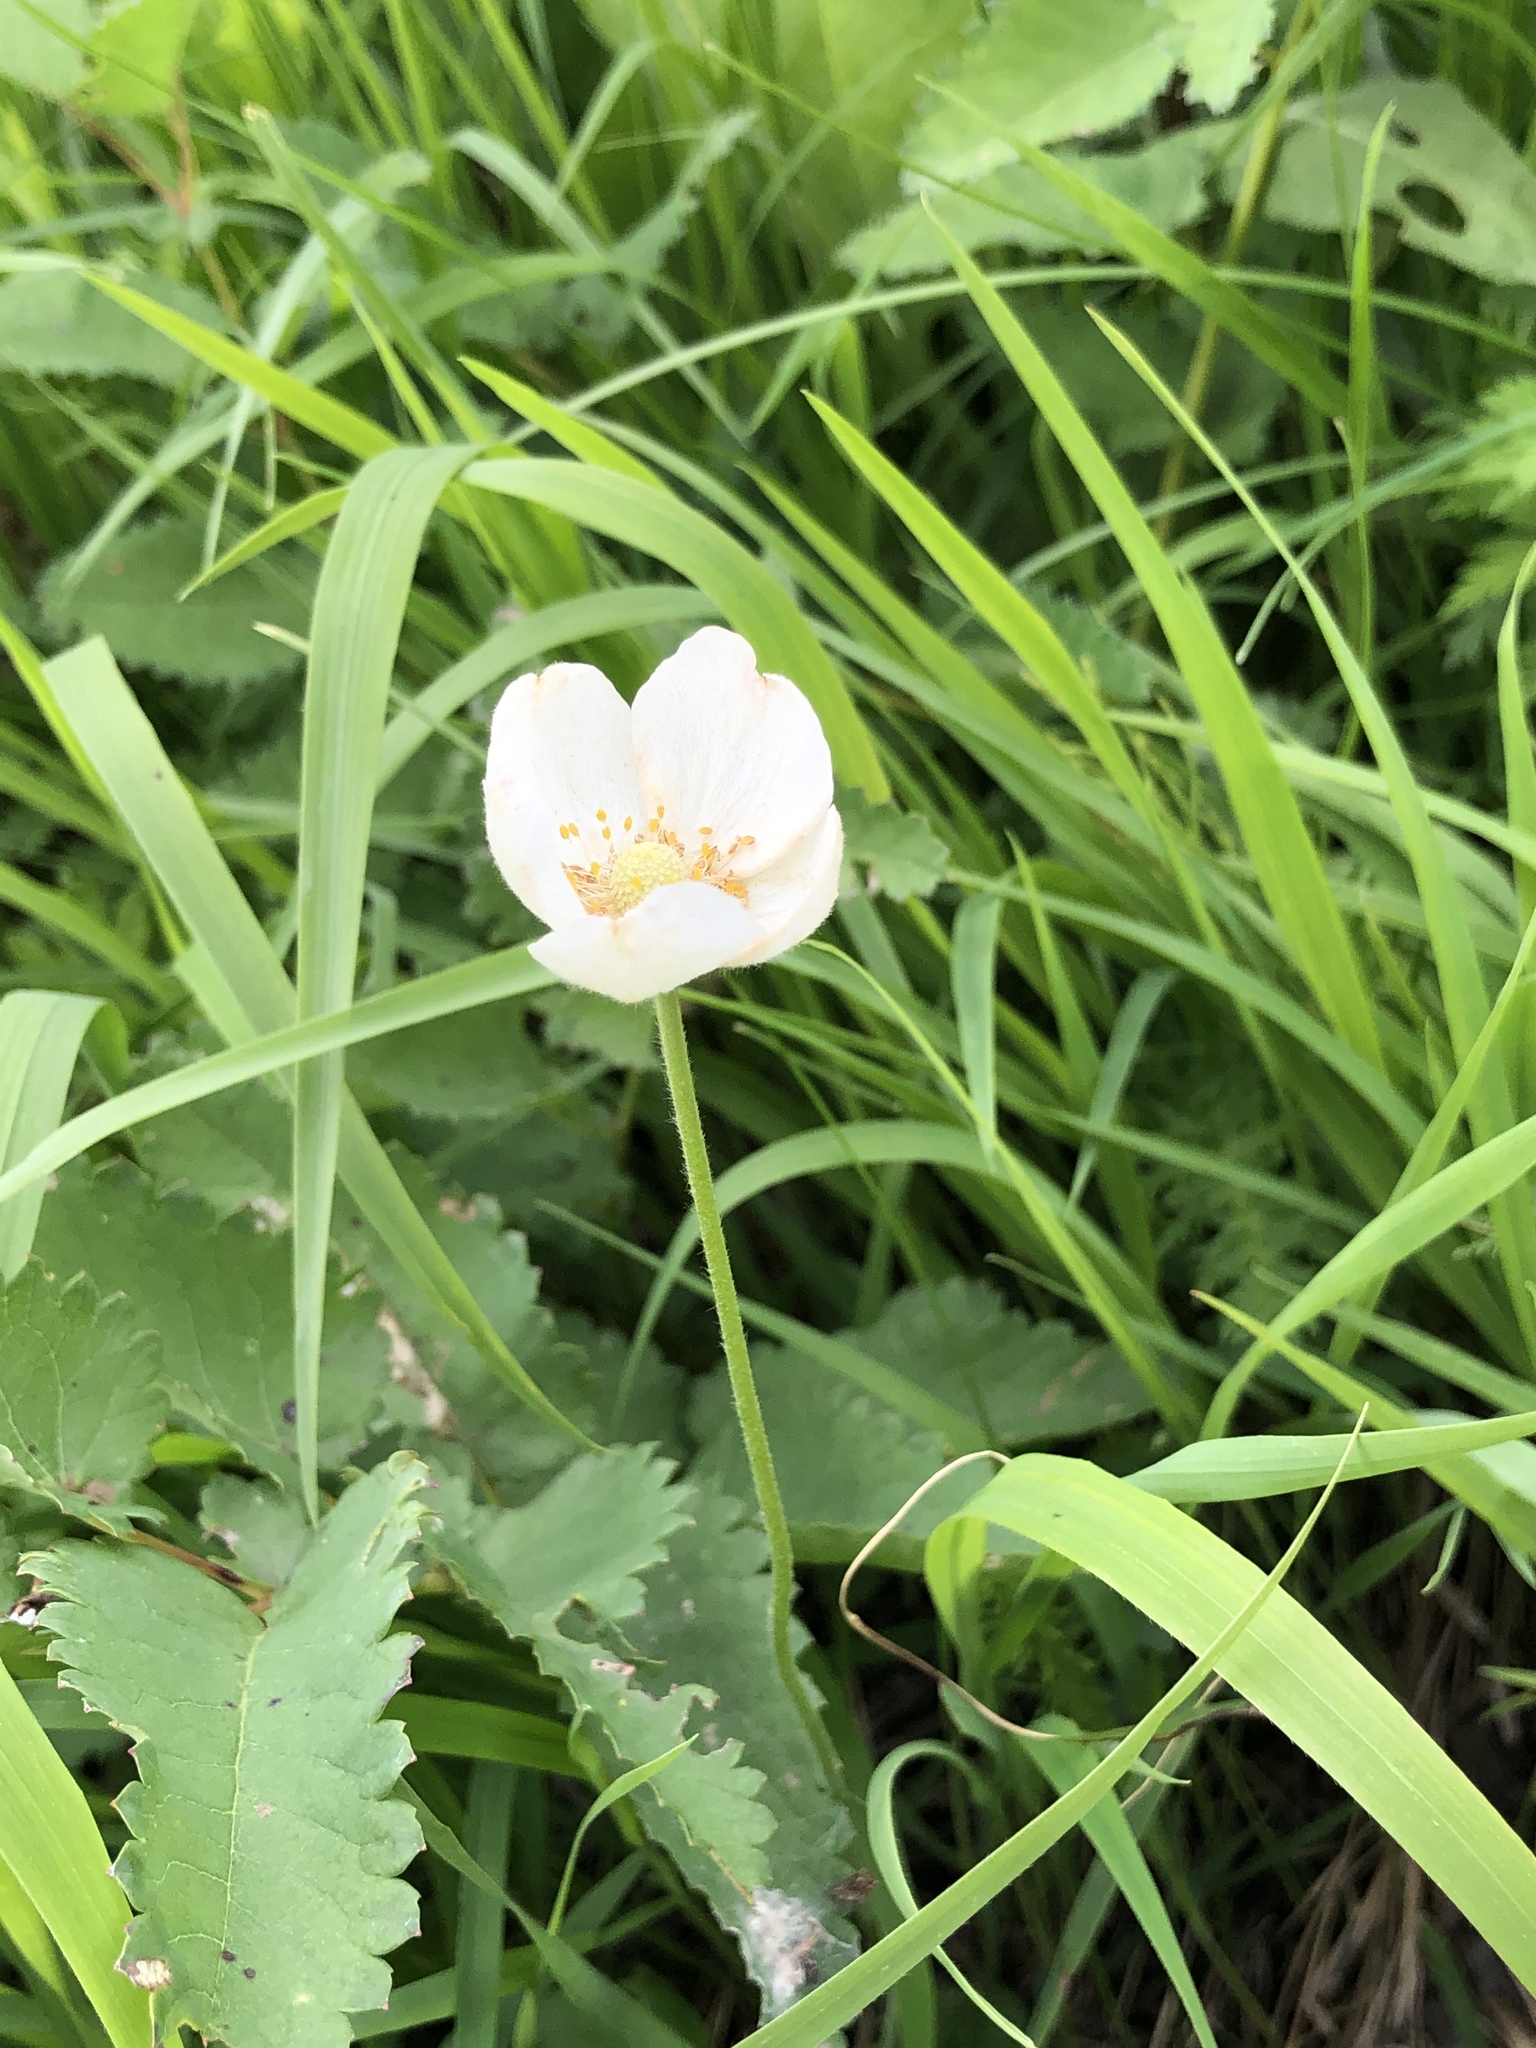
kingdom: Plantae
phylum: Tracheophyta
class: Magnoliopsida
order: Ranunculales
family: Ranunculaceae
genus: Anemone
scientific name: Anemone sylvestris
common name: Snowdrop anemone
